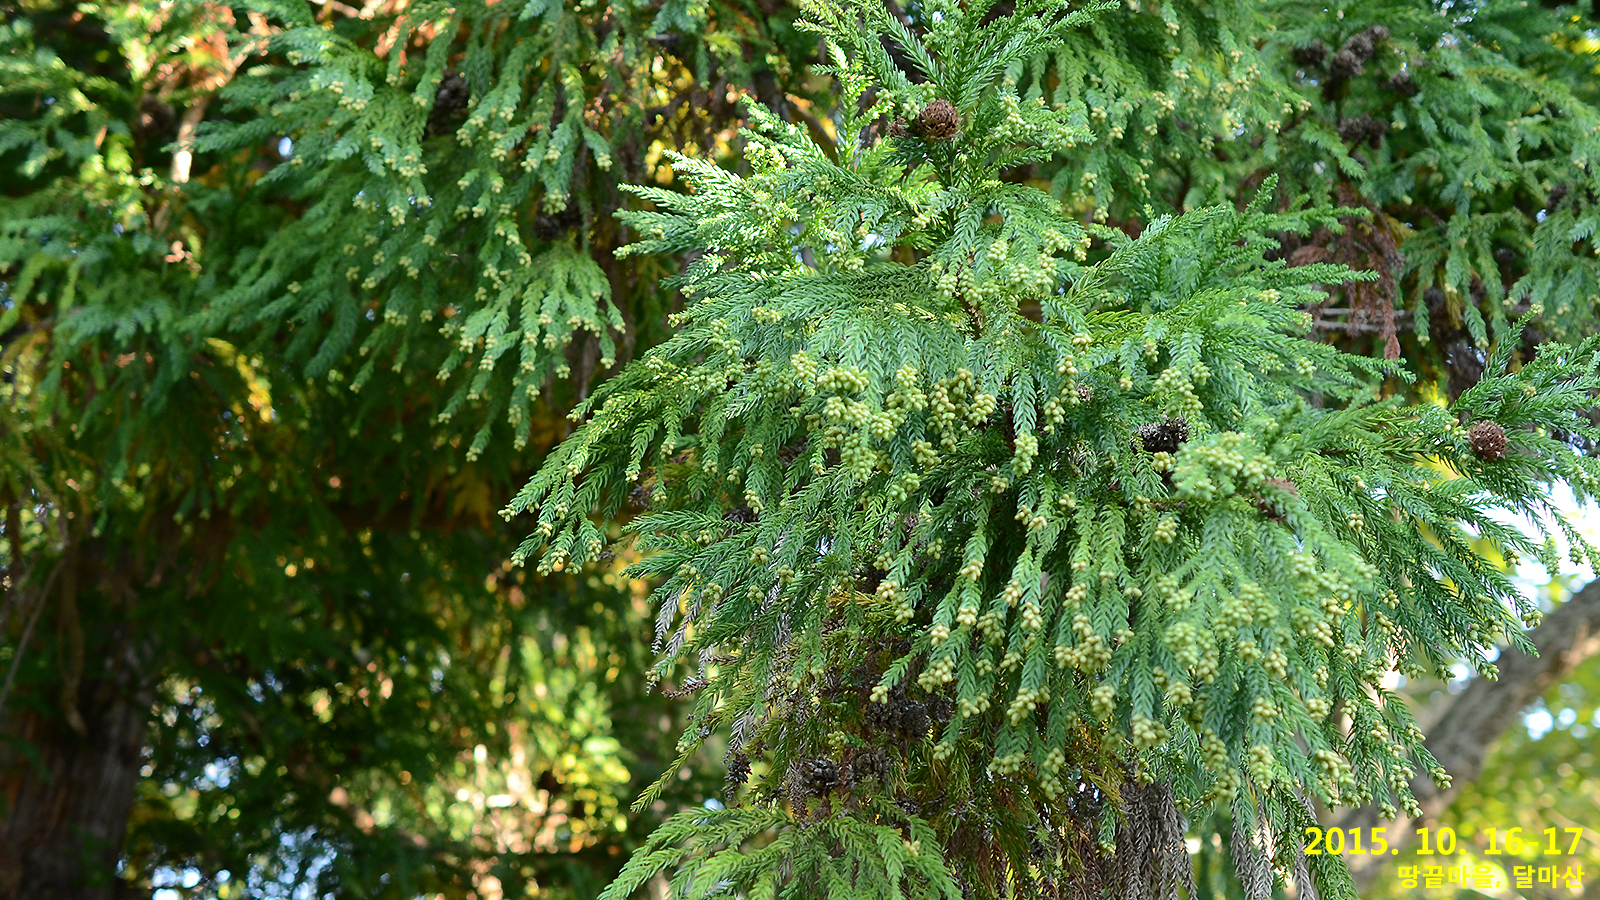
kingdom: Plantae
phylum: Tracheophyta
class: Pinopsida
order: Pinales
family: Cupressaceae
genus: Cryptomeria
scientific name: Cryptomeria japonica
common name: Japanese cedar
